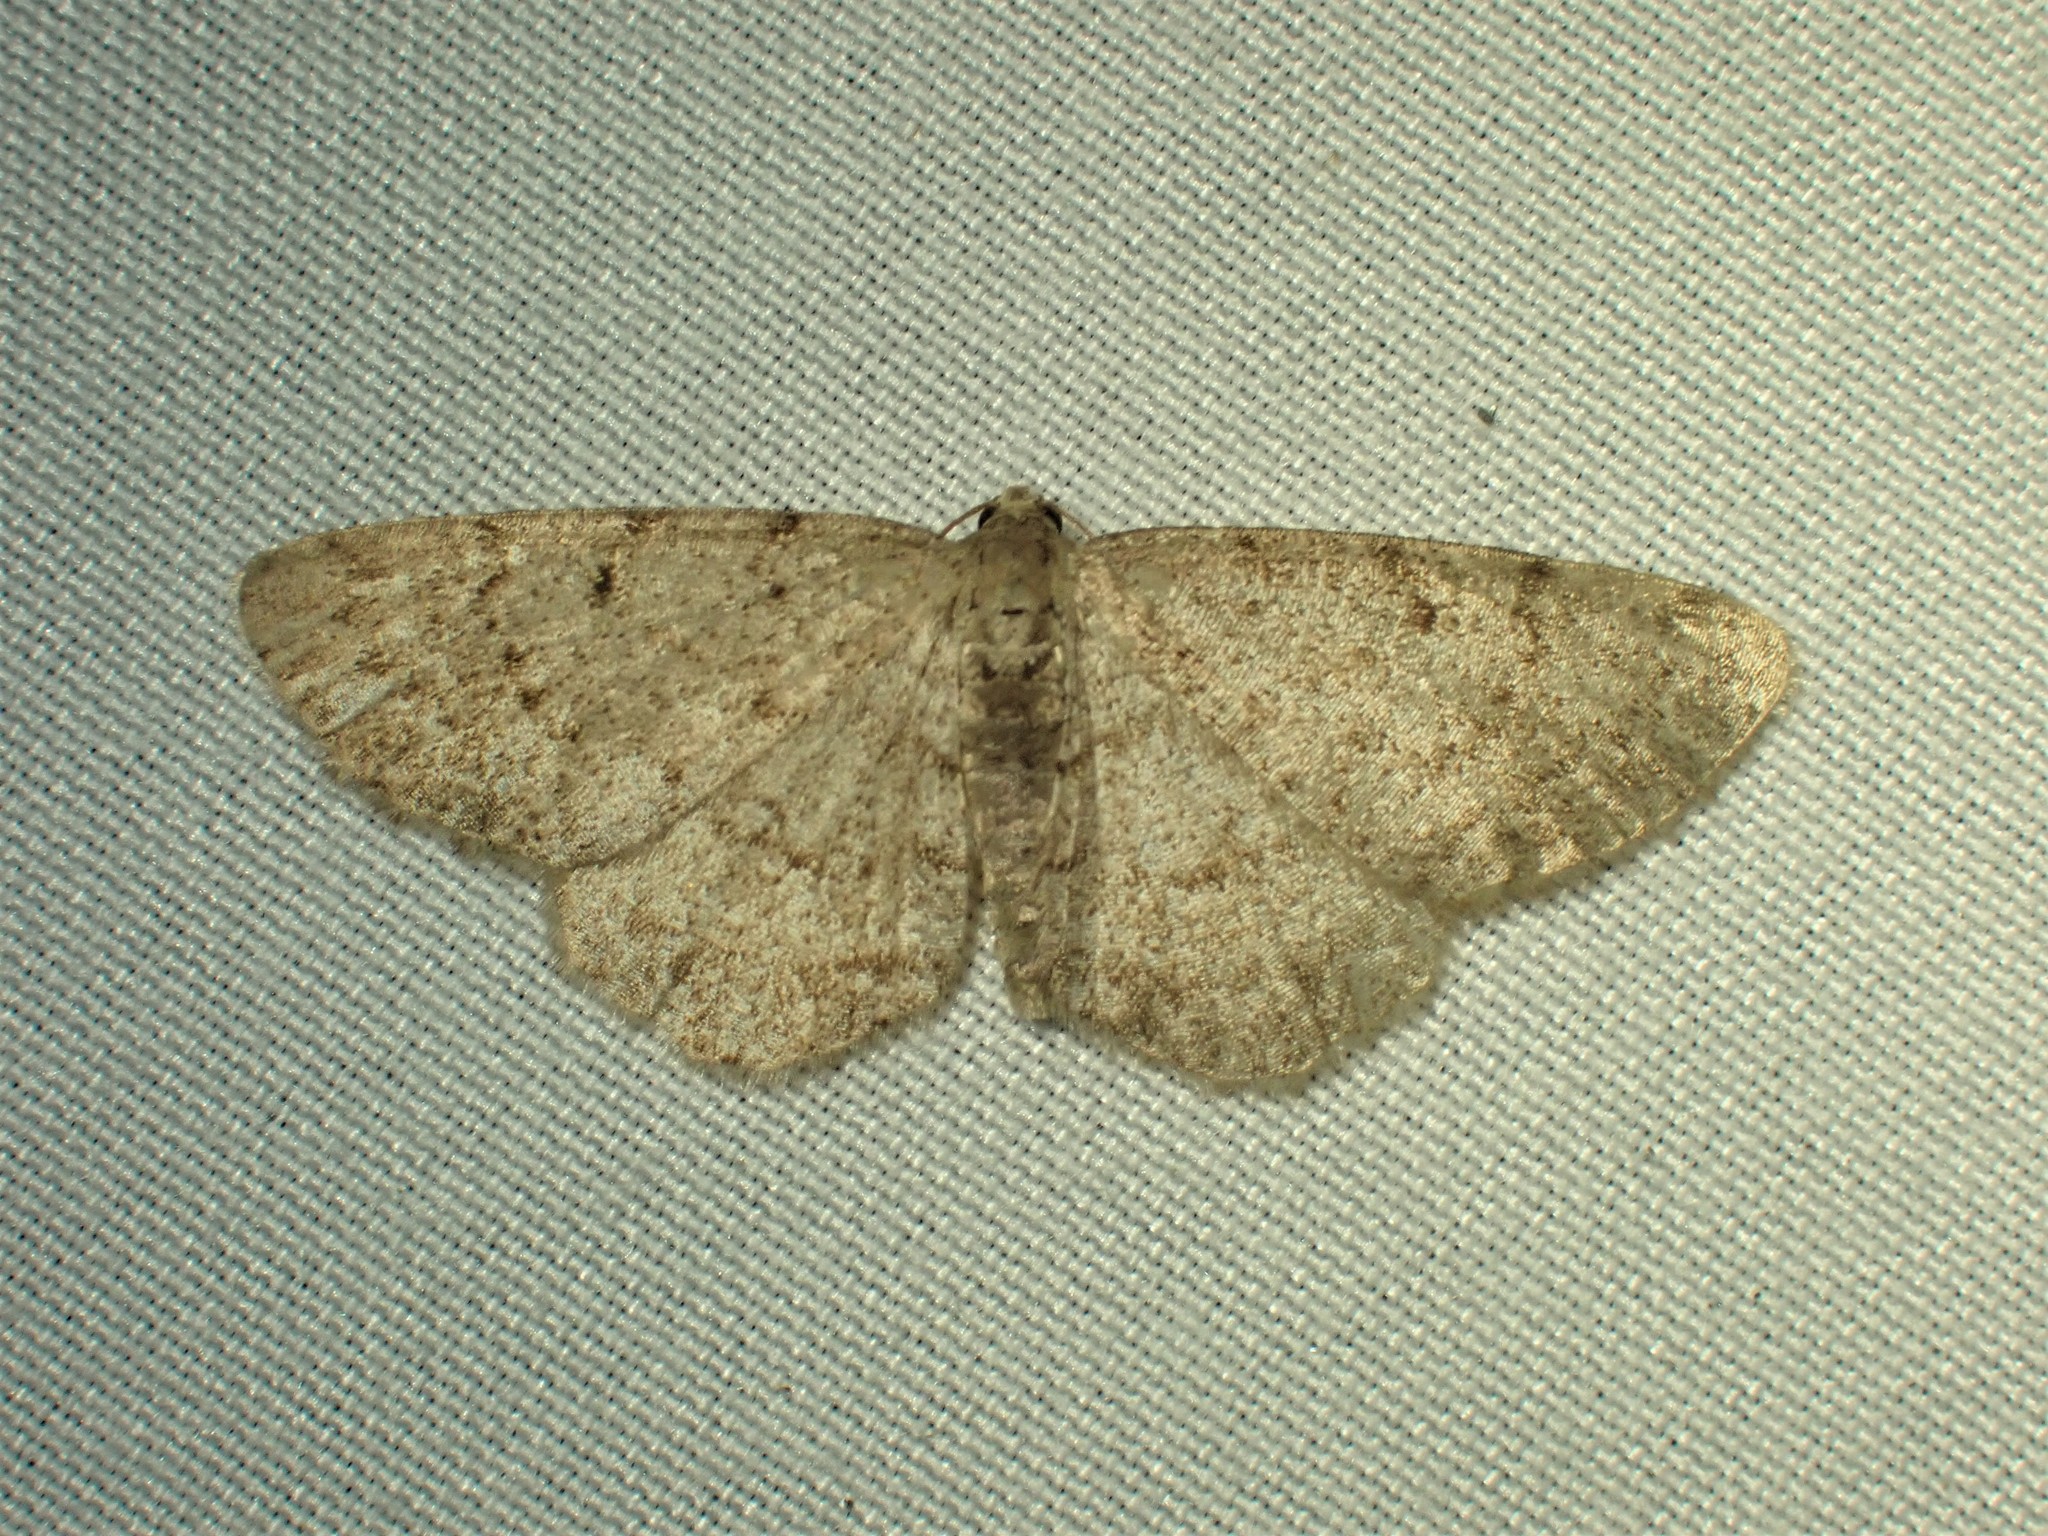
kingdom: Animalia
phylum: Arthropoda
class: Insecta
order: Lepidoptera
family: Geometridae
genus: Aethalura
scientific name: Aethalura intertexta
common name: Four-barred gray
